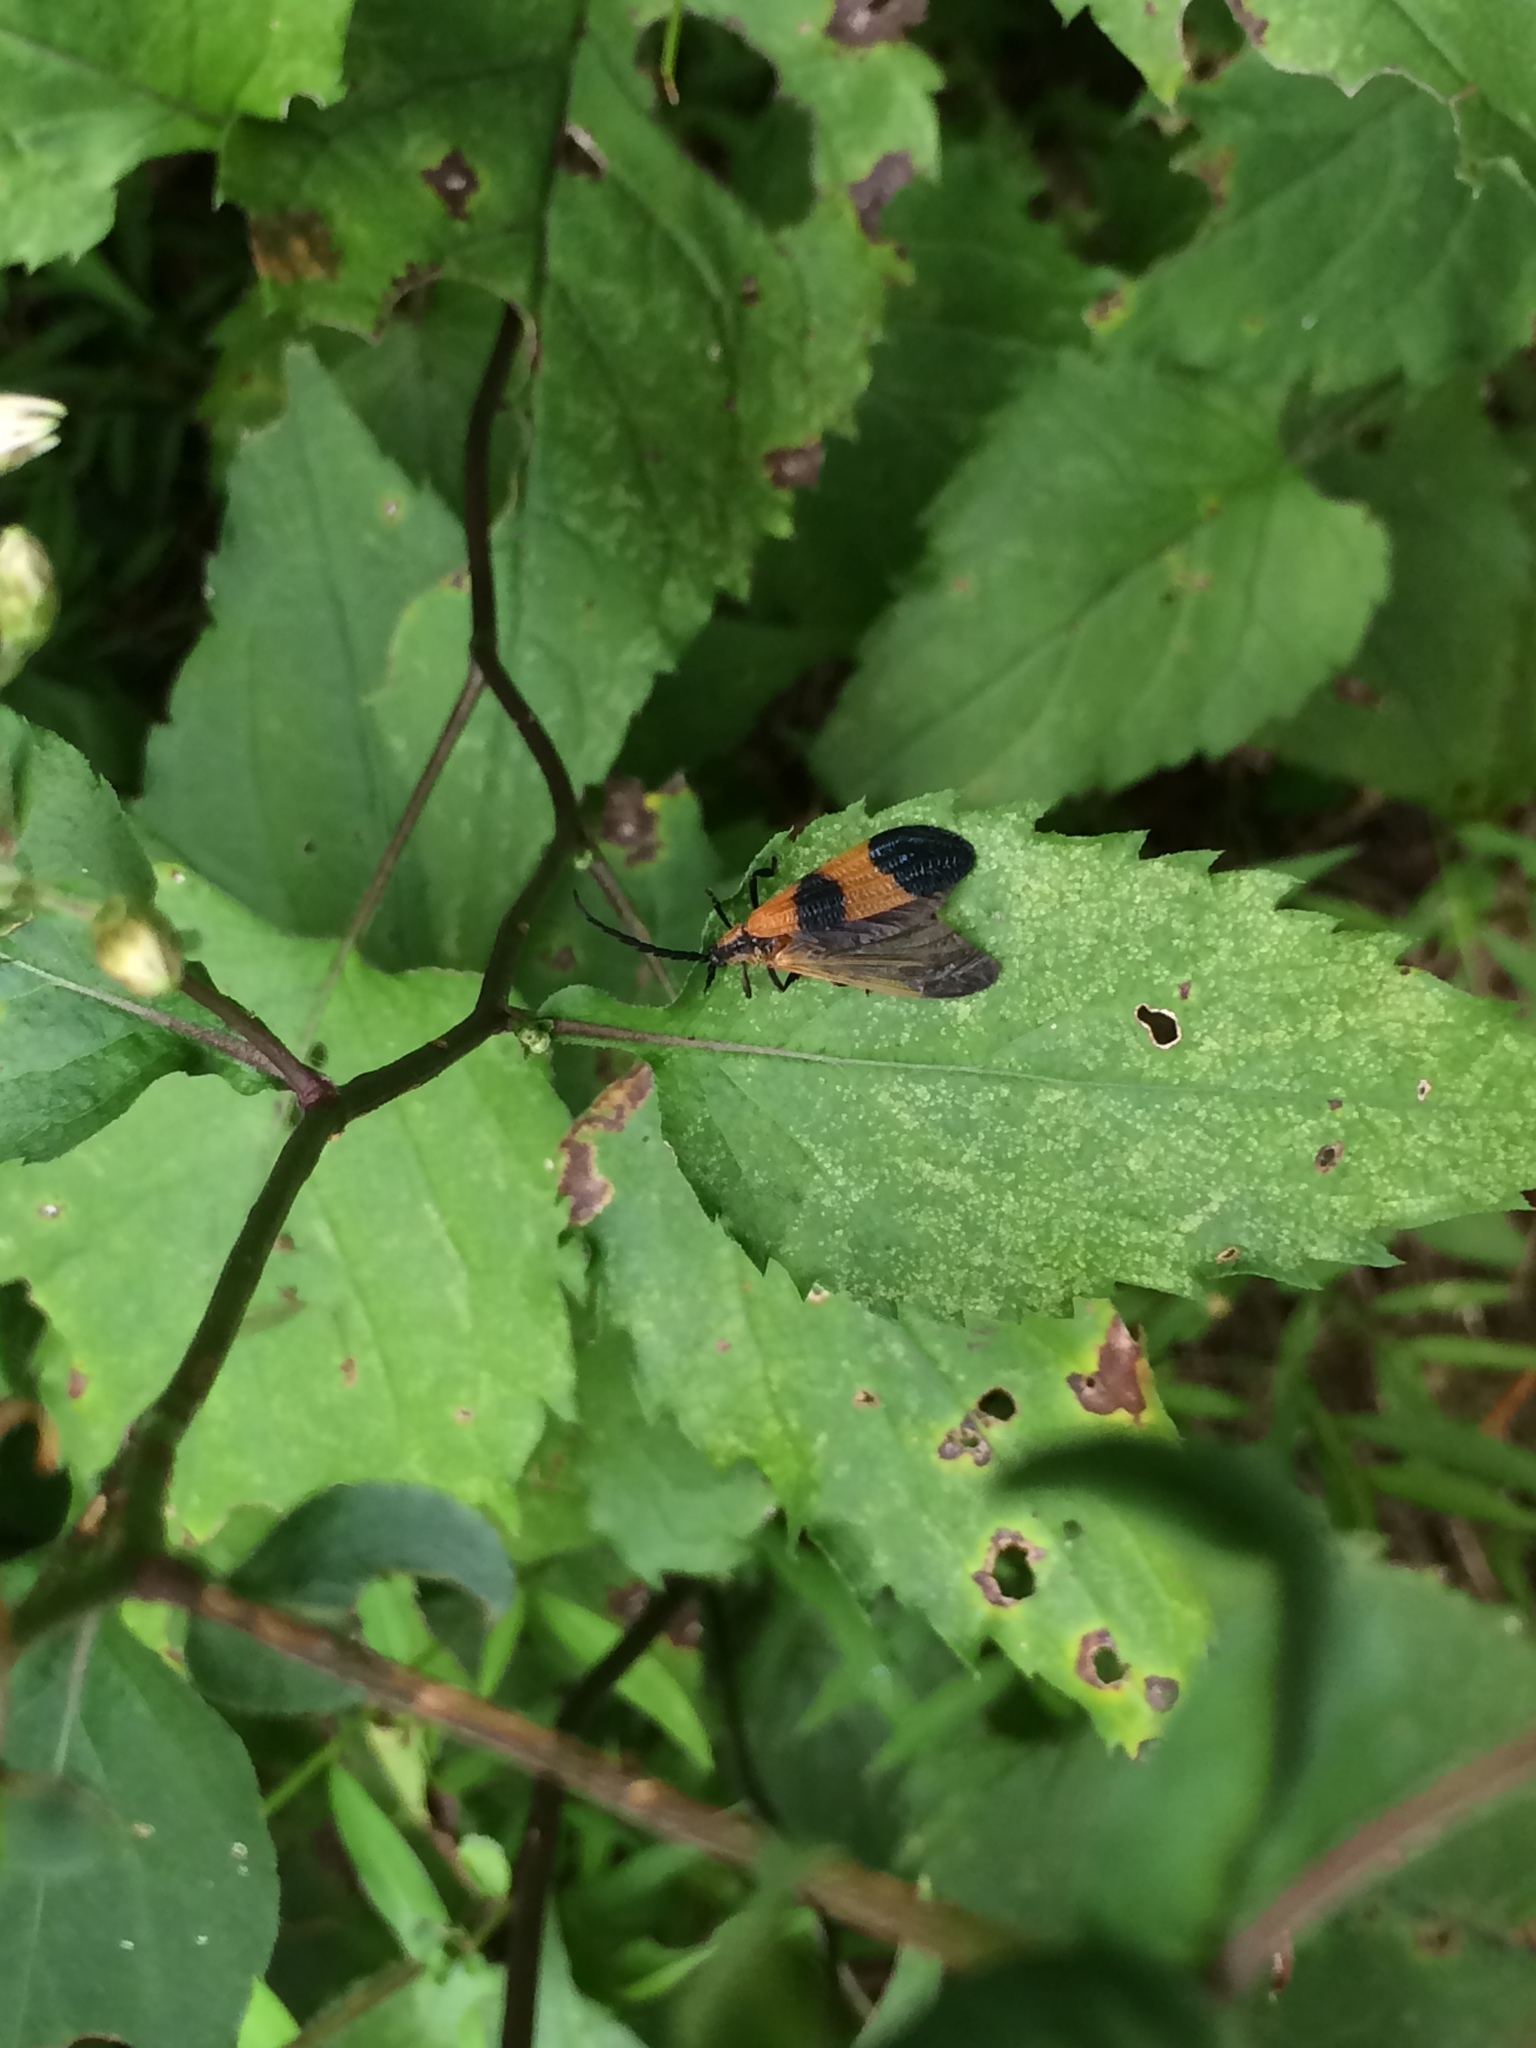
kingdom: Animalia
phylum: Arthropoda
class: Insecta
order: Coleoptera
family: Lycidae
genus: Calopteron
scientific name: Calopteron terminale
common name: End band net-winged beetle
